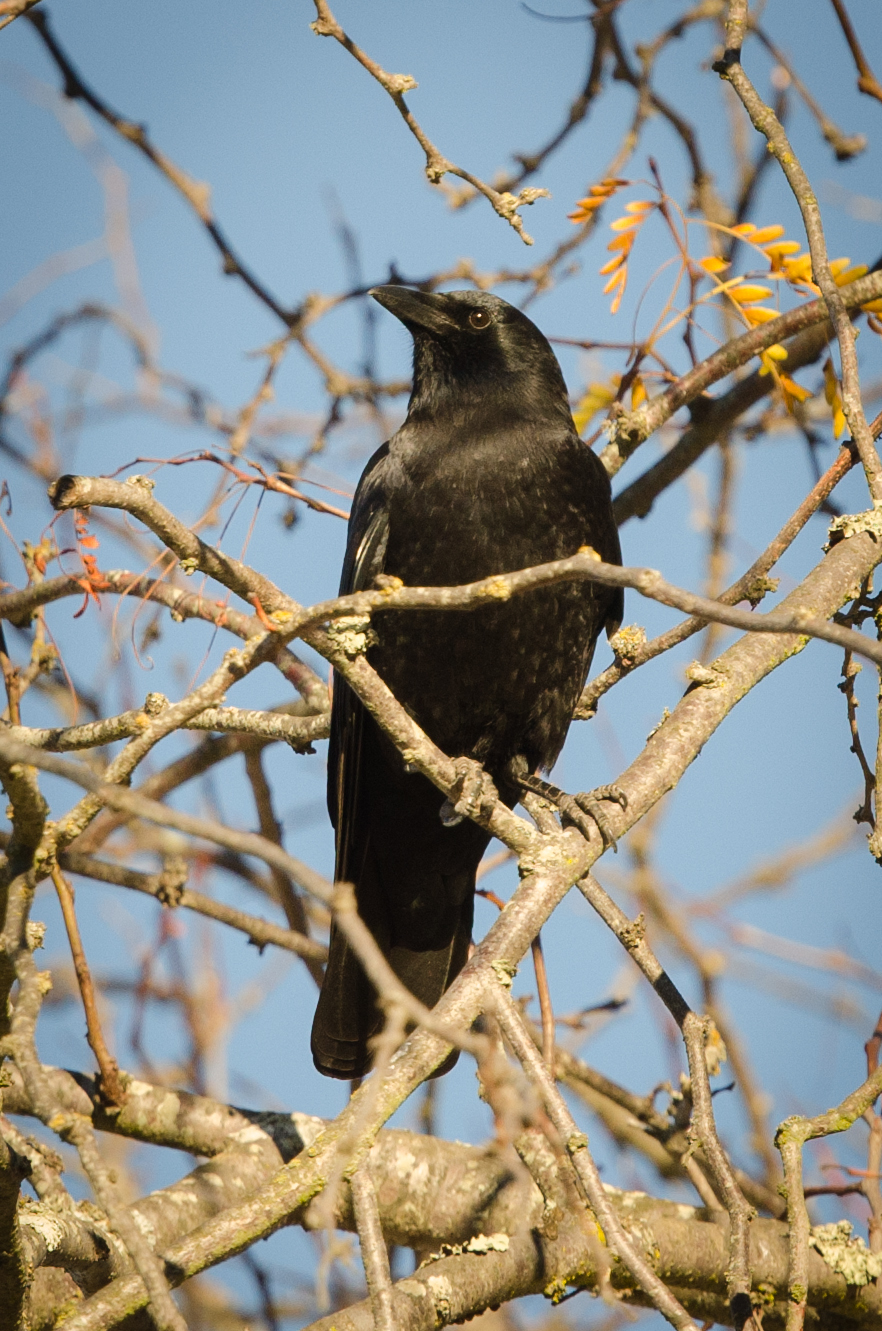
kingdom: Animalia
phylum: Chordata
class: Aves
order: Passeriformes
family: Corvidae
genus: Corvus
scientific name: Corvus brachyrhynchos
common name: American crow
